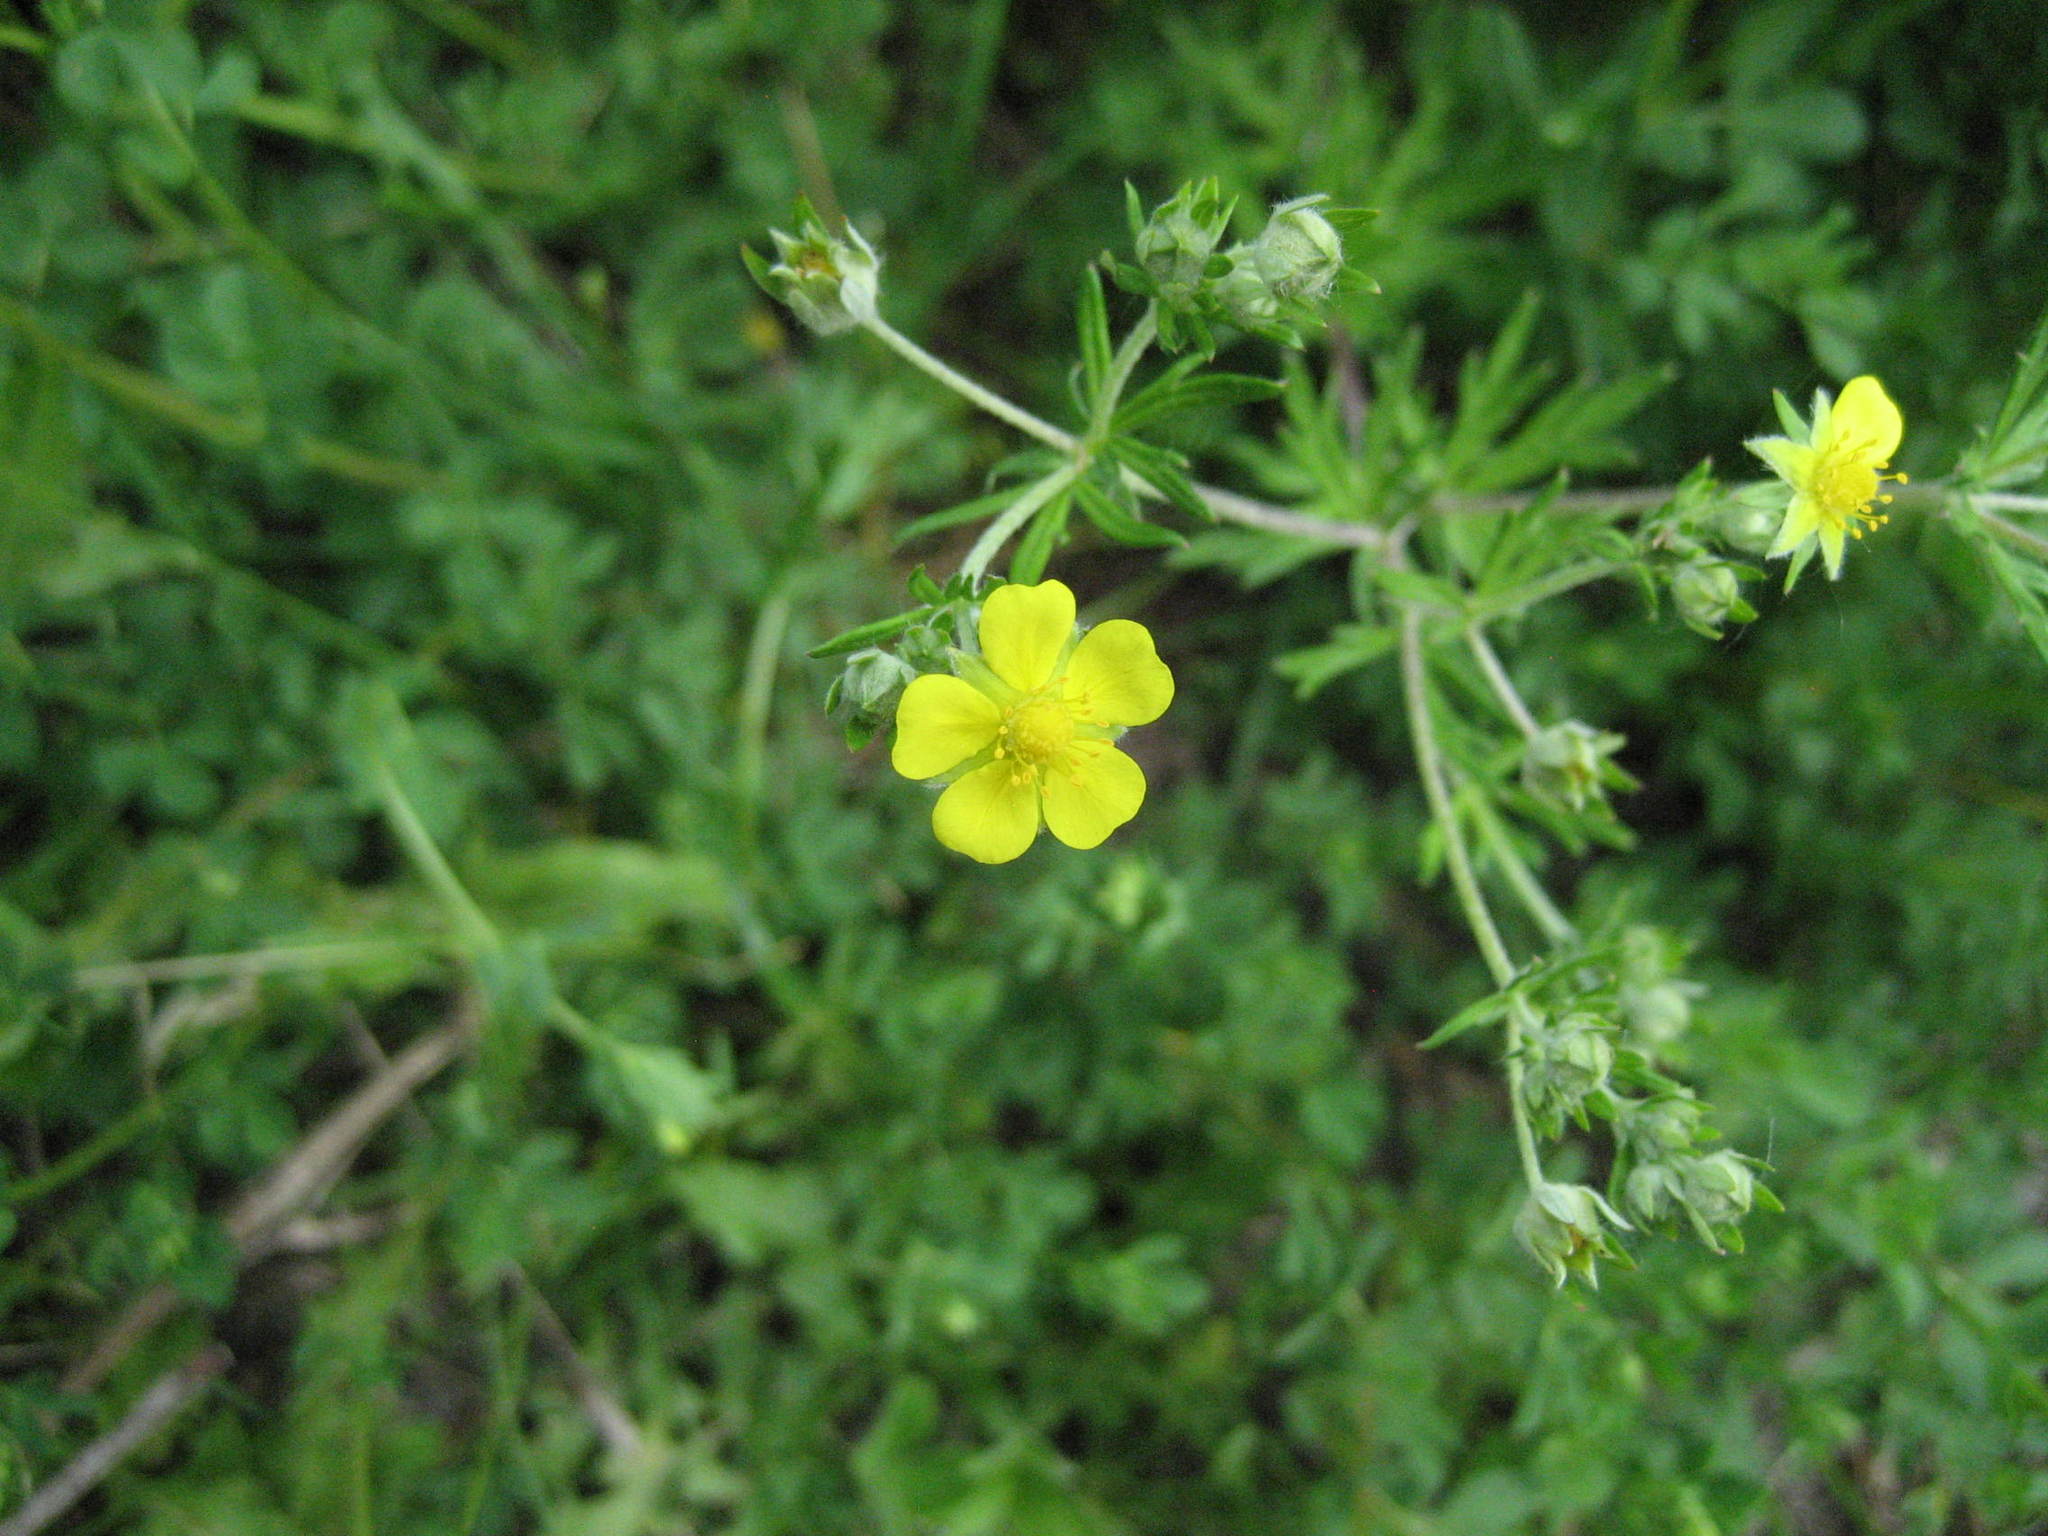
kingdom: Plantae
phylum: Tracheophyta
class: Magnoliopsida
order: Rosales
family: Rosaceae
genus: Potentilla
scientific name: Potentilla argentea
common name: Hoary cinquefoil
